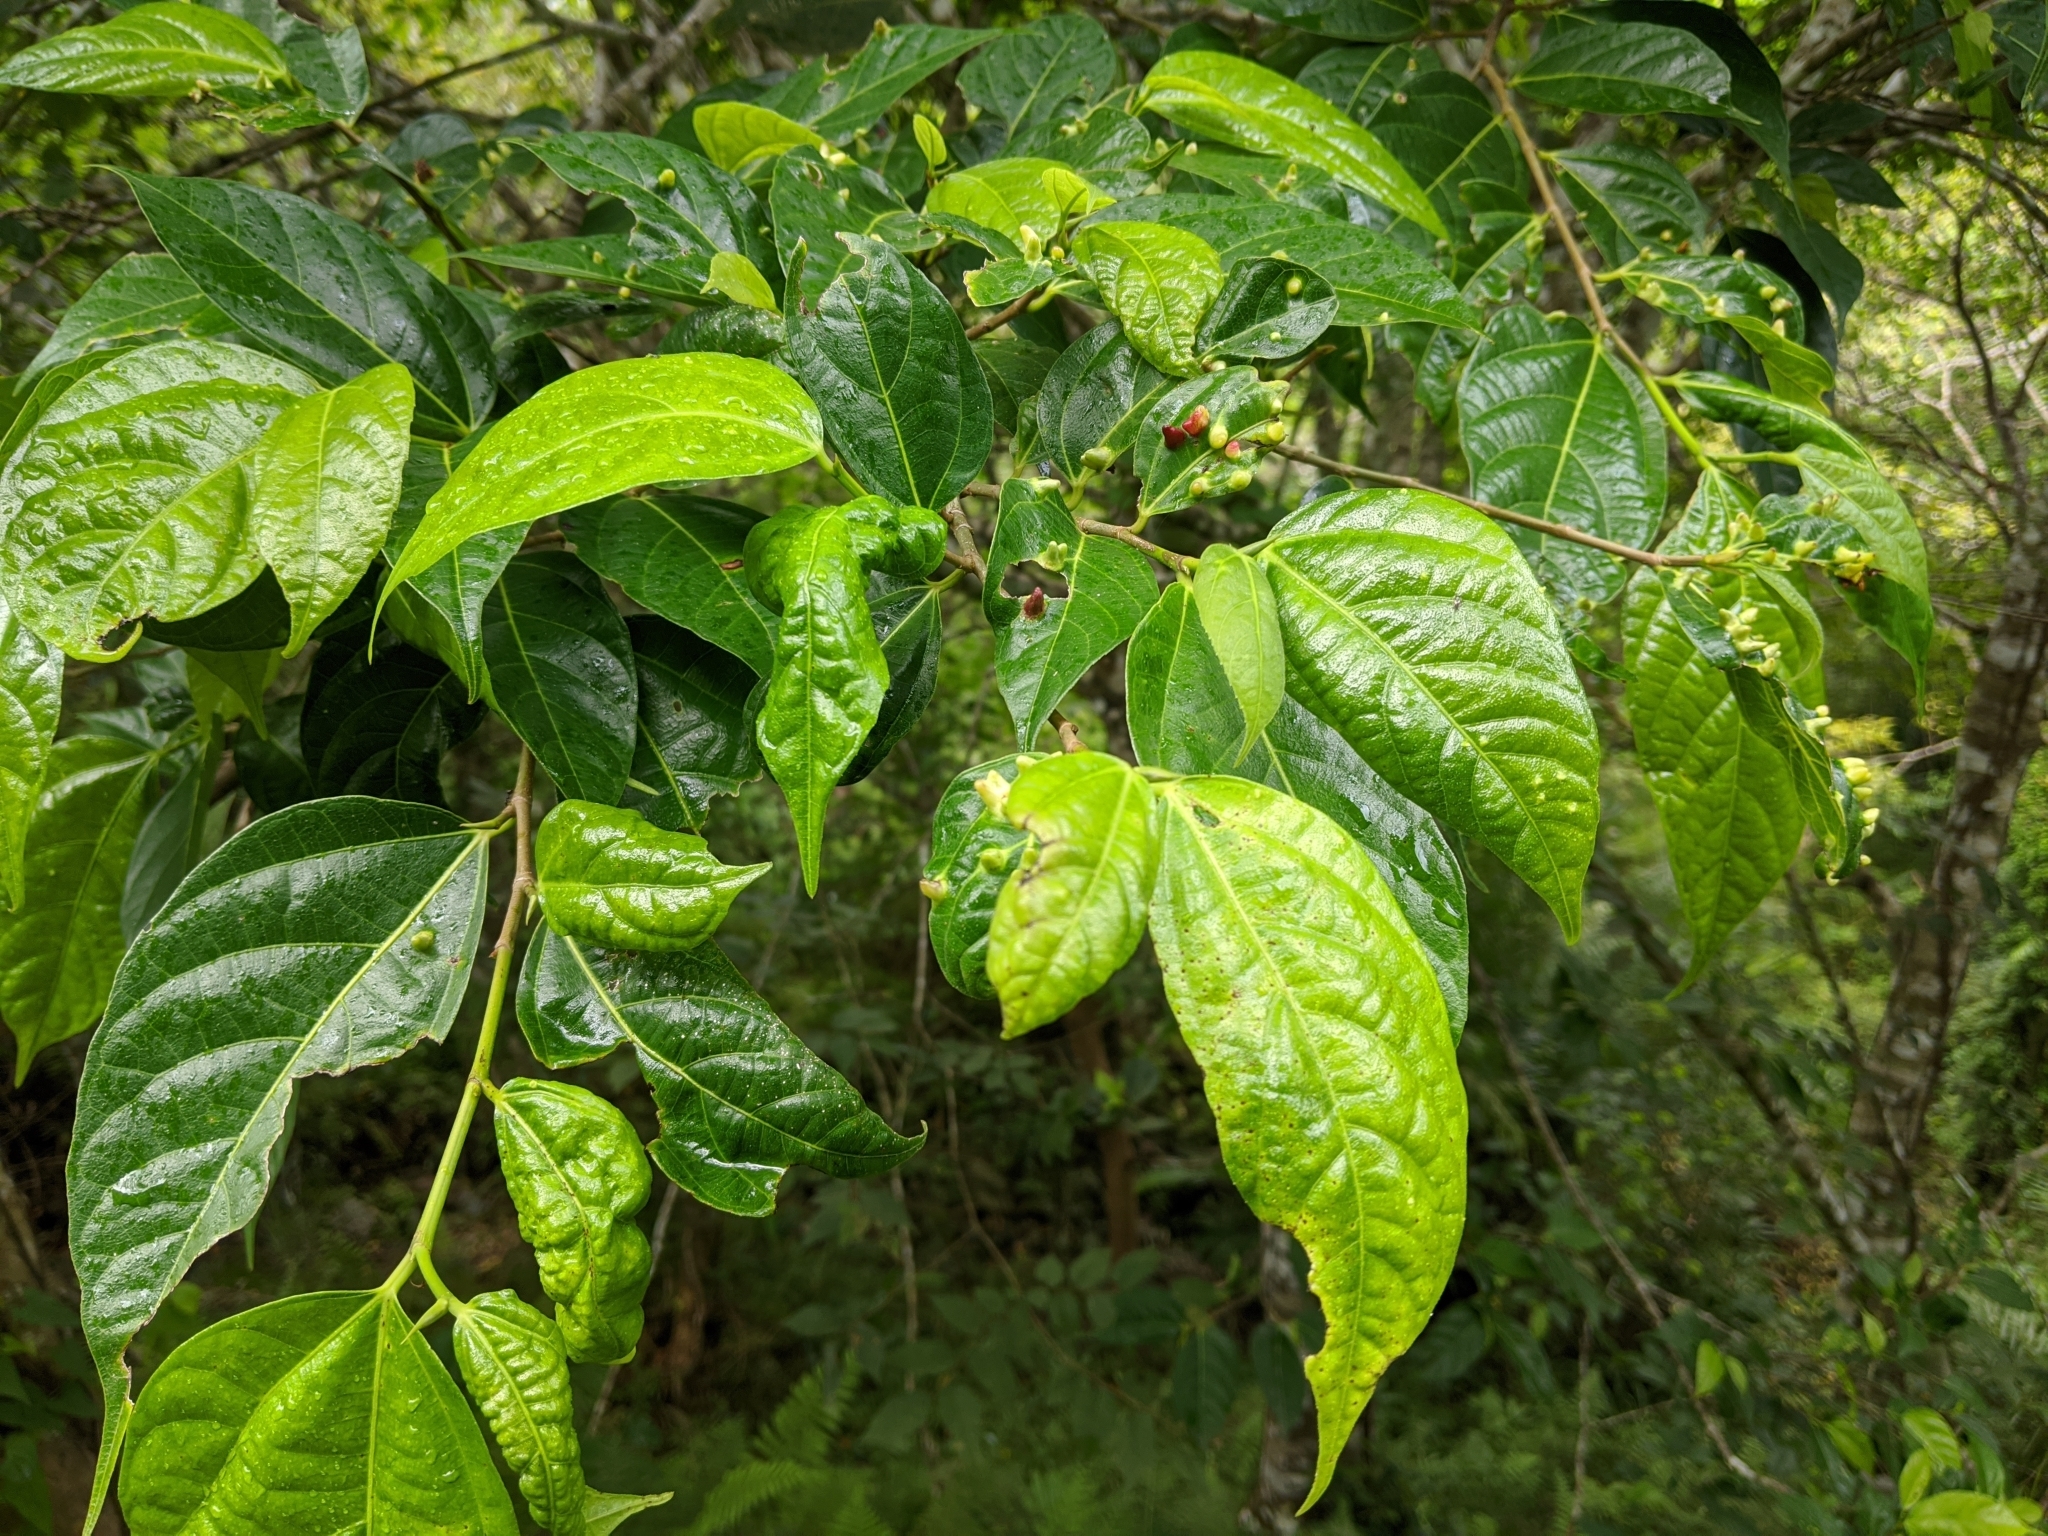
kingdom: Plantae
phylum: Tracheophyta
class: Magnoliopsida
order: Rosales
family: Moraceae
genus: Ficus
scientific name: Ficus ampelos
